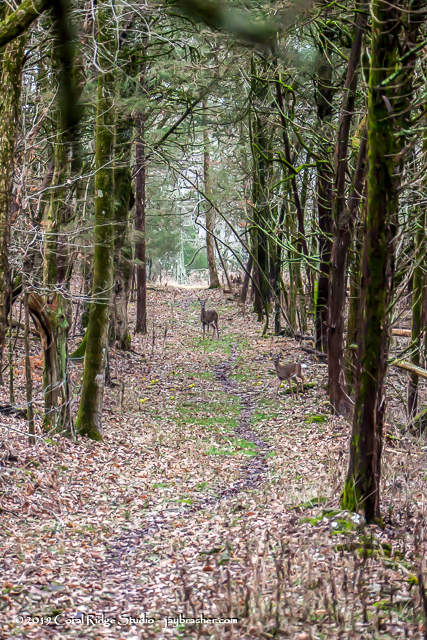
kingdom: Animalia
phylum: Chordata
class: Mammalia
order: Artiodactyla
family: Cervidae
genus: Odocoileus
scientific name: Odocoileus virginianus
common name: White-tailed deer
